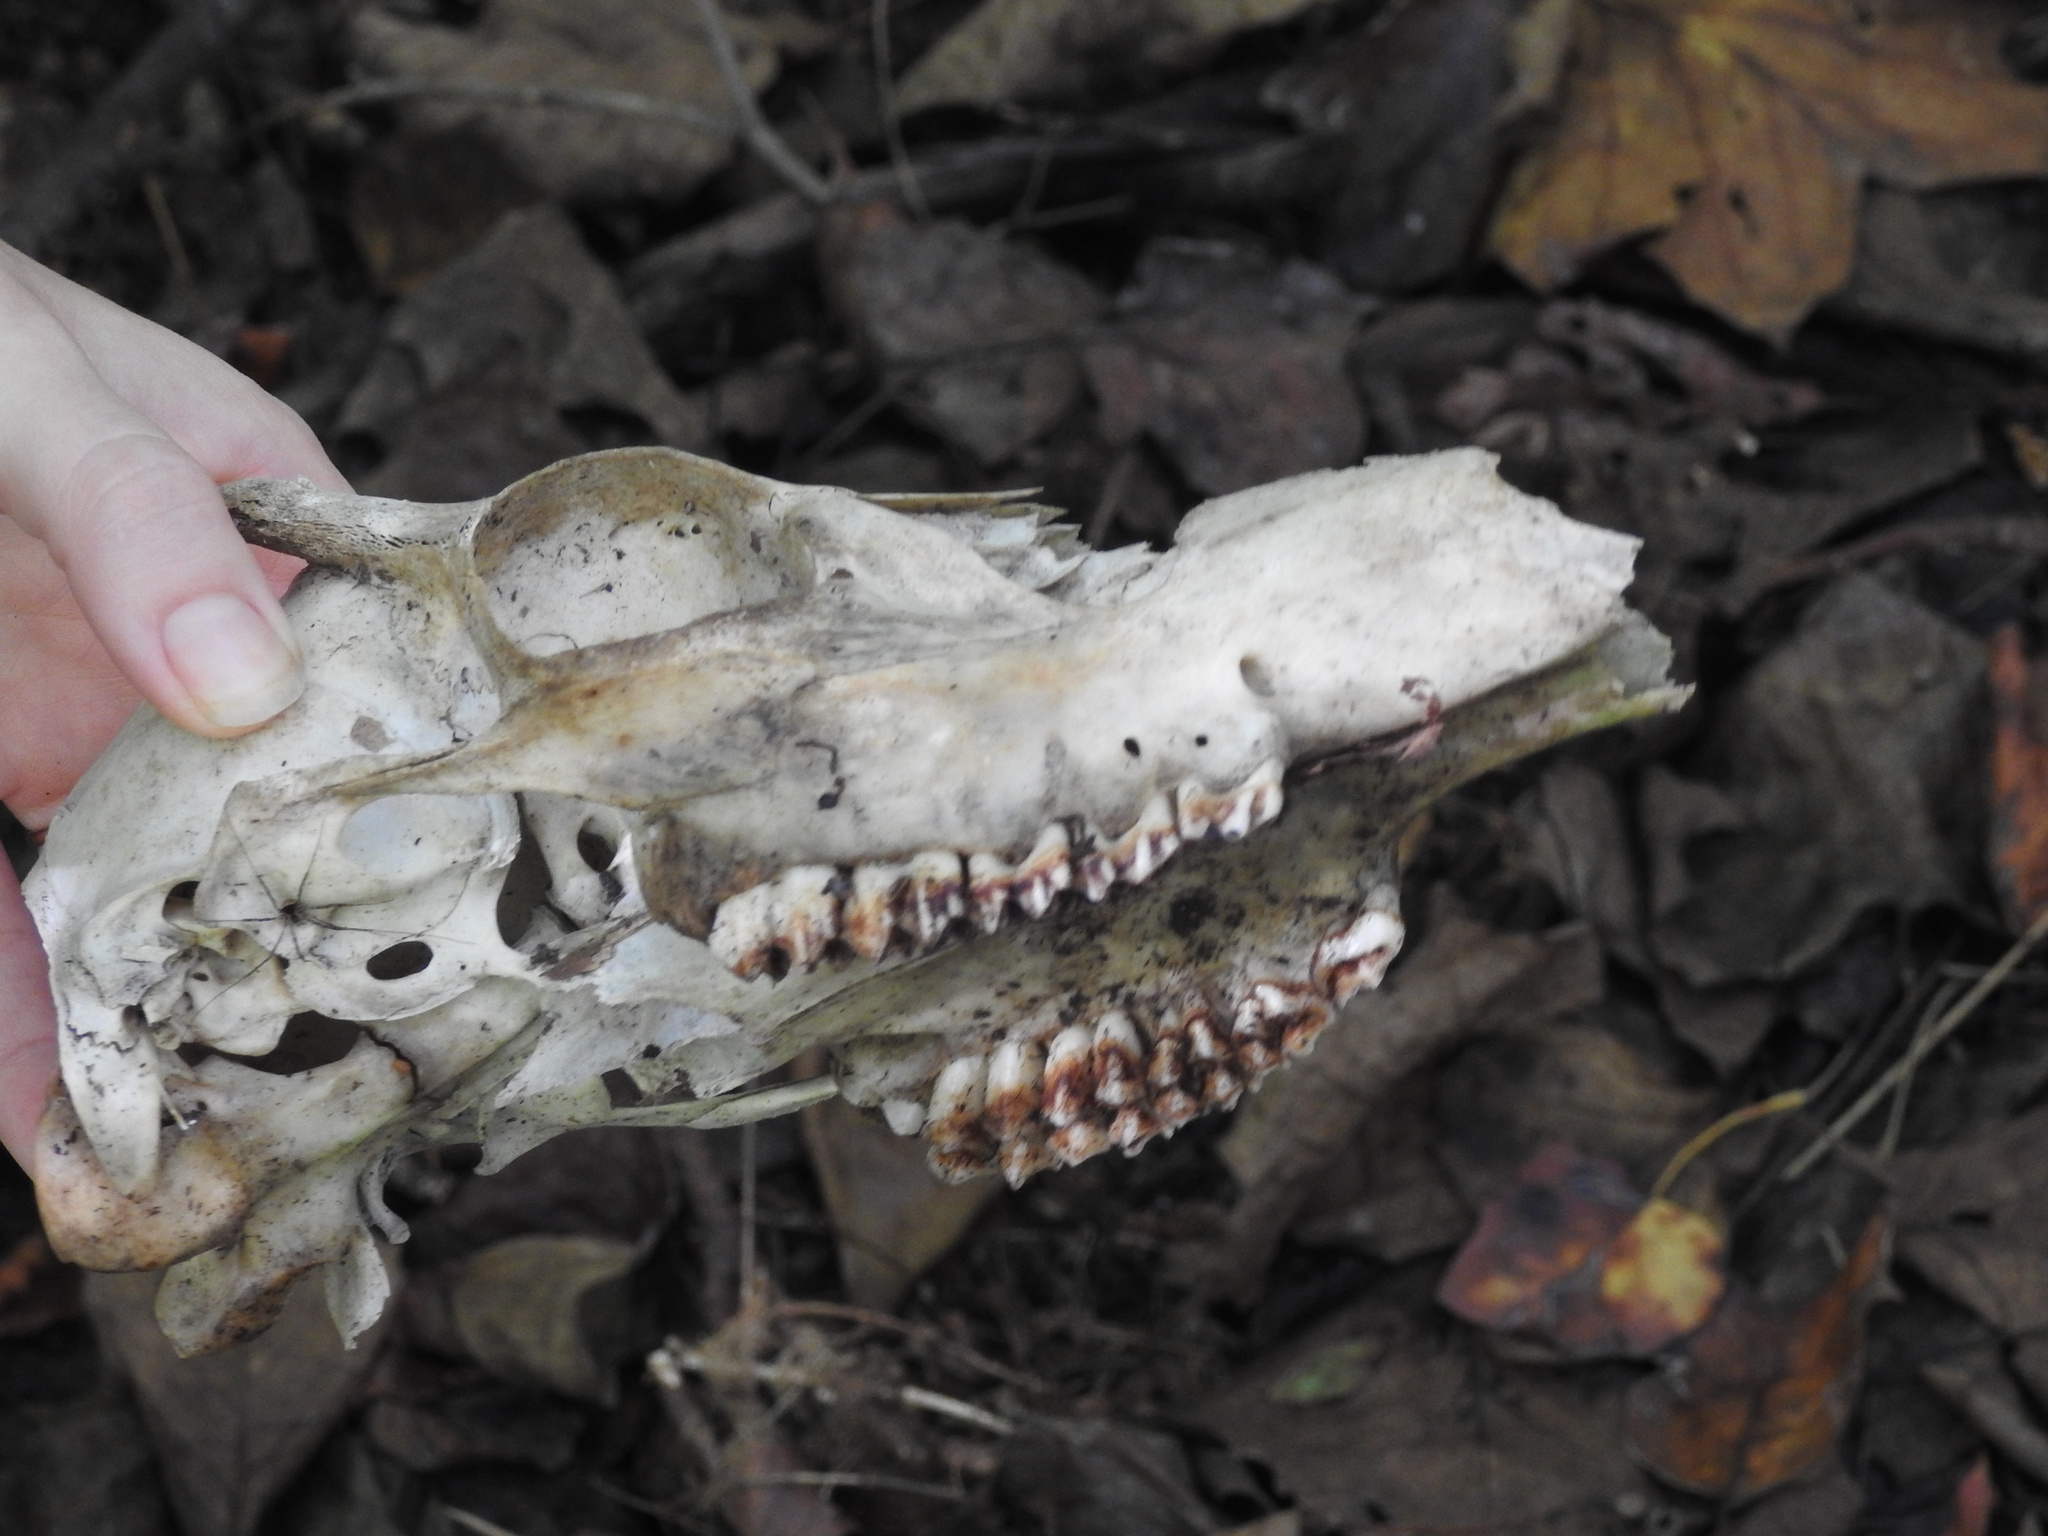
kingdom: Animalia
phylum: Chordata
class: Mammalia
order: Artiodactyla
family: Cervidae
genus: Odocoileus
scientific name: Odocoileus virginianus
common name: White-tailed deer
